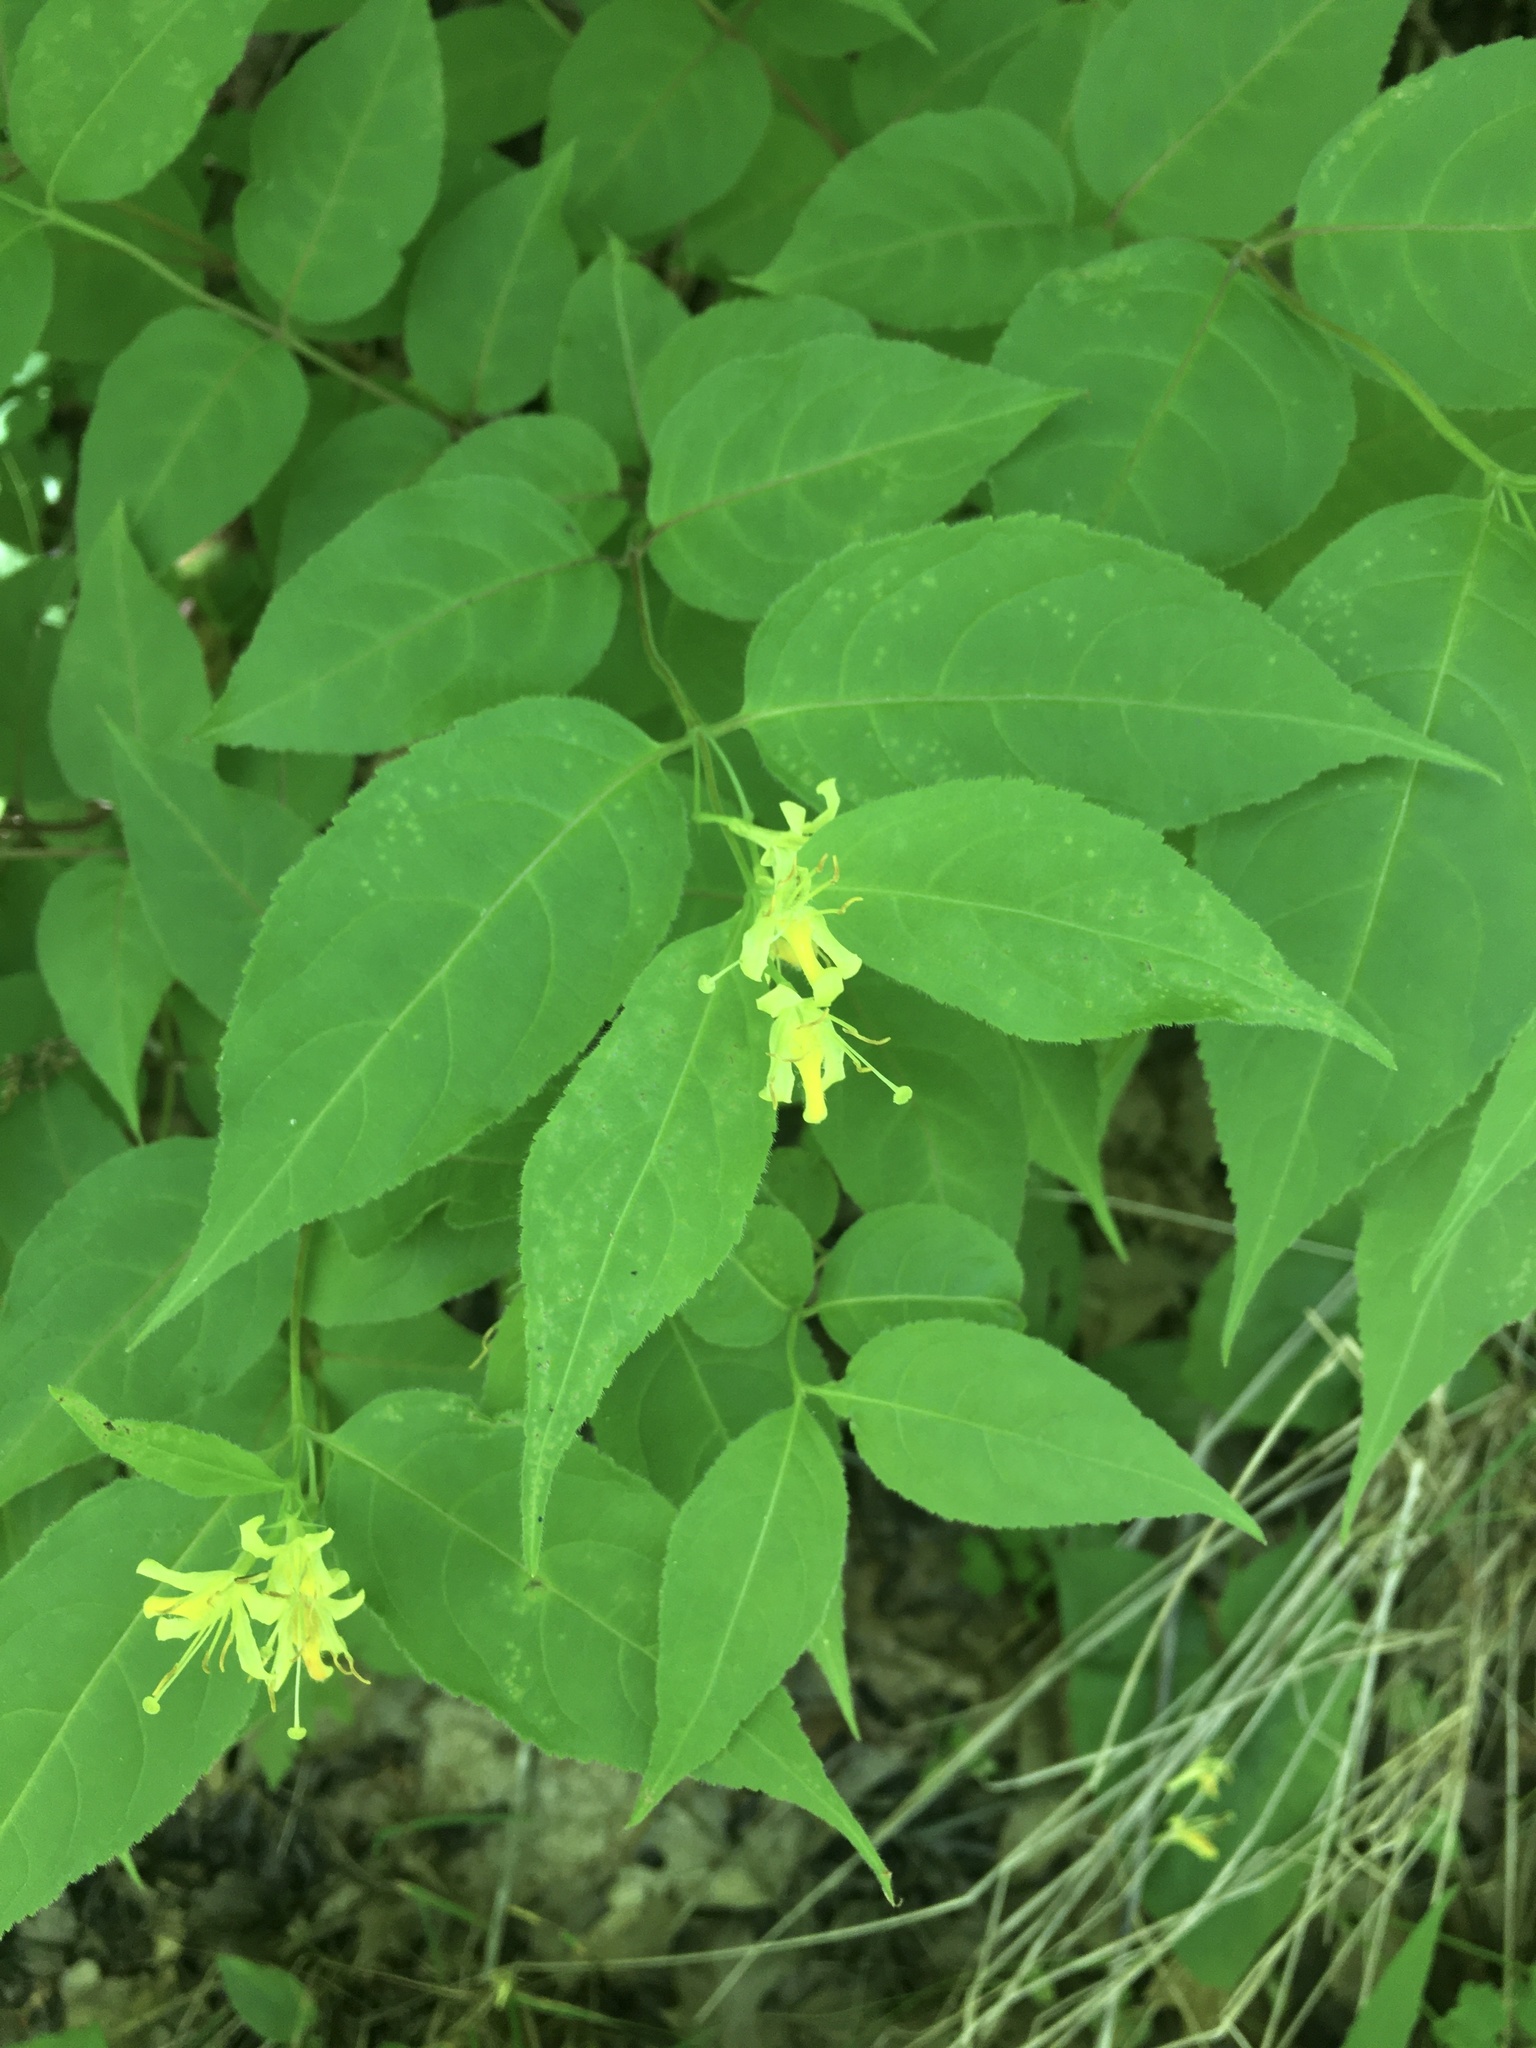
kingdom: Plantae
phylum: Tracheophyta
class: Magnoliopsida
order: Dipsacales
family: Caprifoliaceae
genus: Diervilla
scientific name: Diervilla lonicera
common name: Bush-honeysuckle
